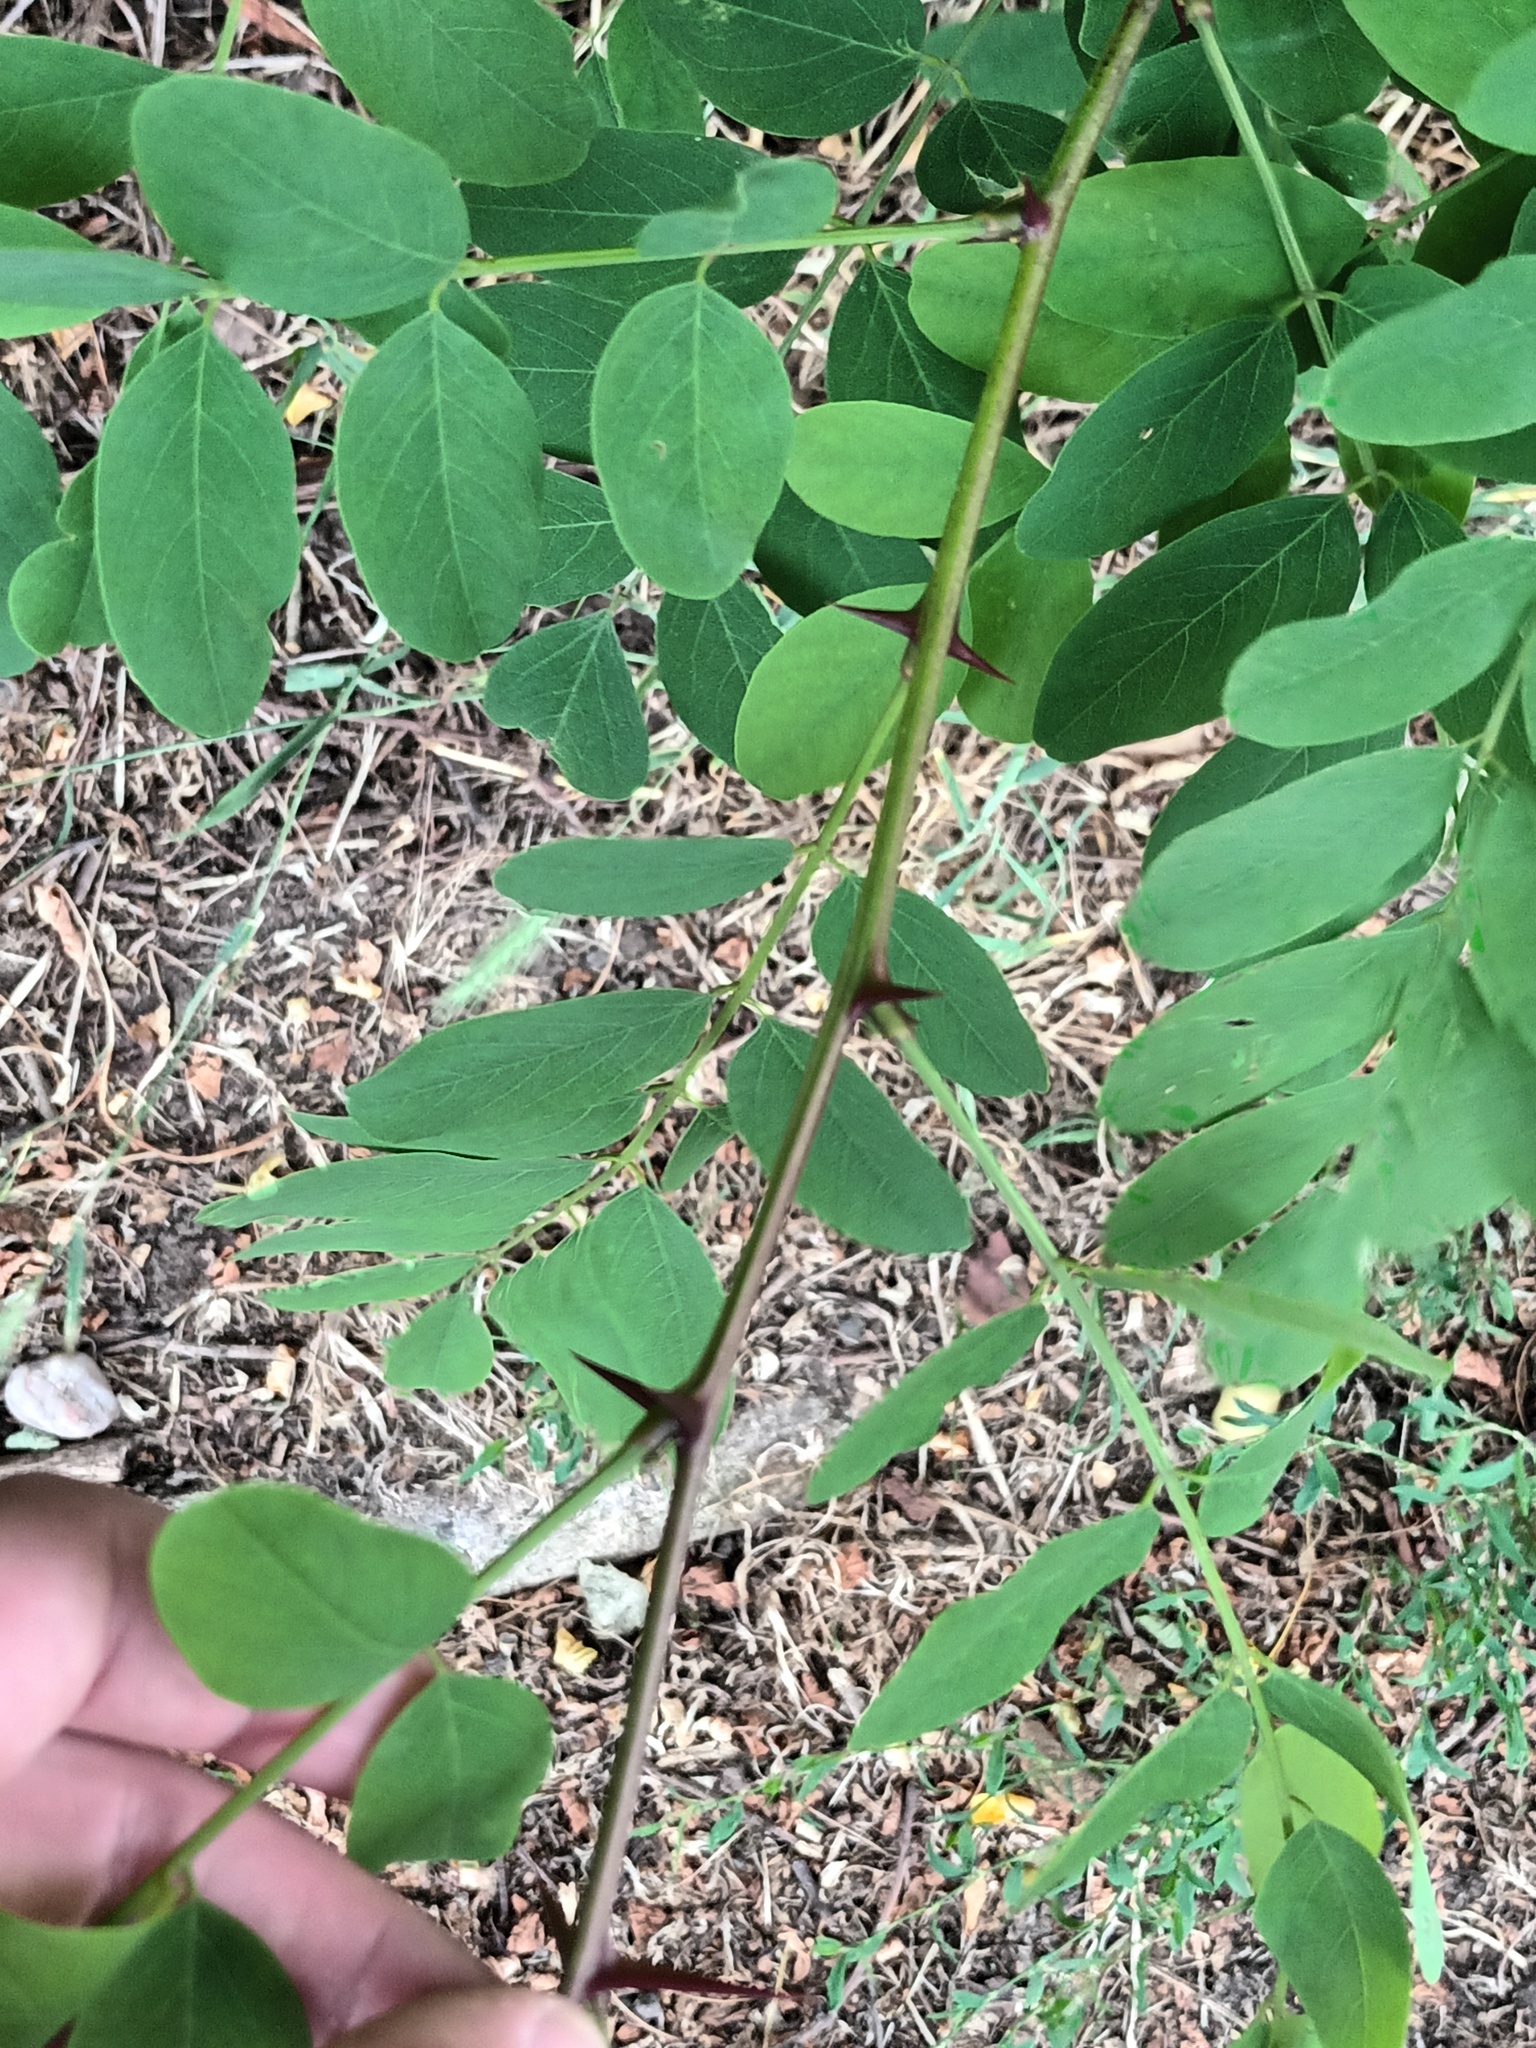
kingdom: Plantae
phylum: Tracheophyta
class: Magnoliopsida
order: Fabales
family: Fabaceae
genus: Robinia
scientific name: Robinia pseudoacacia
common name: Black locust
